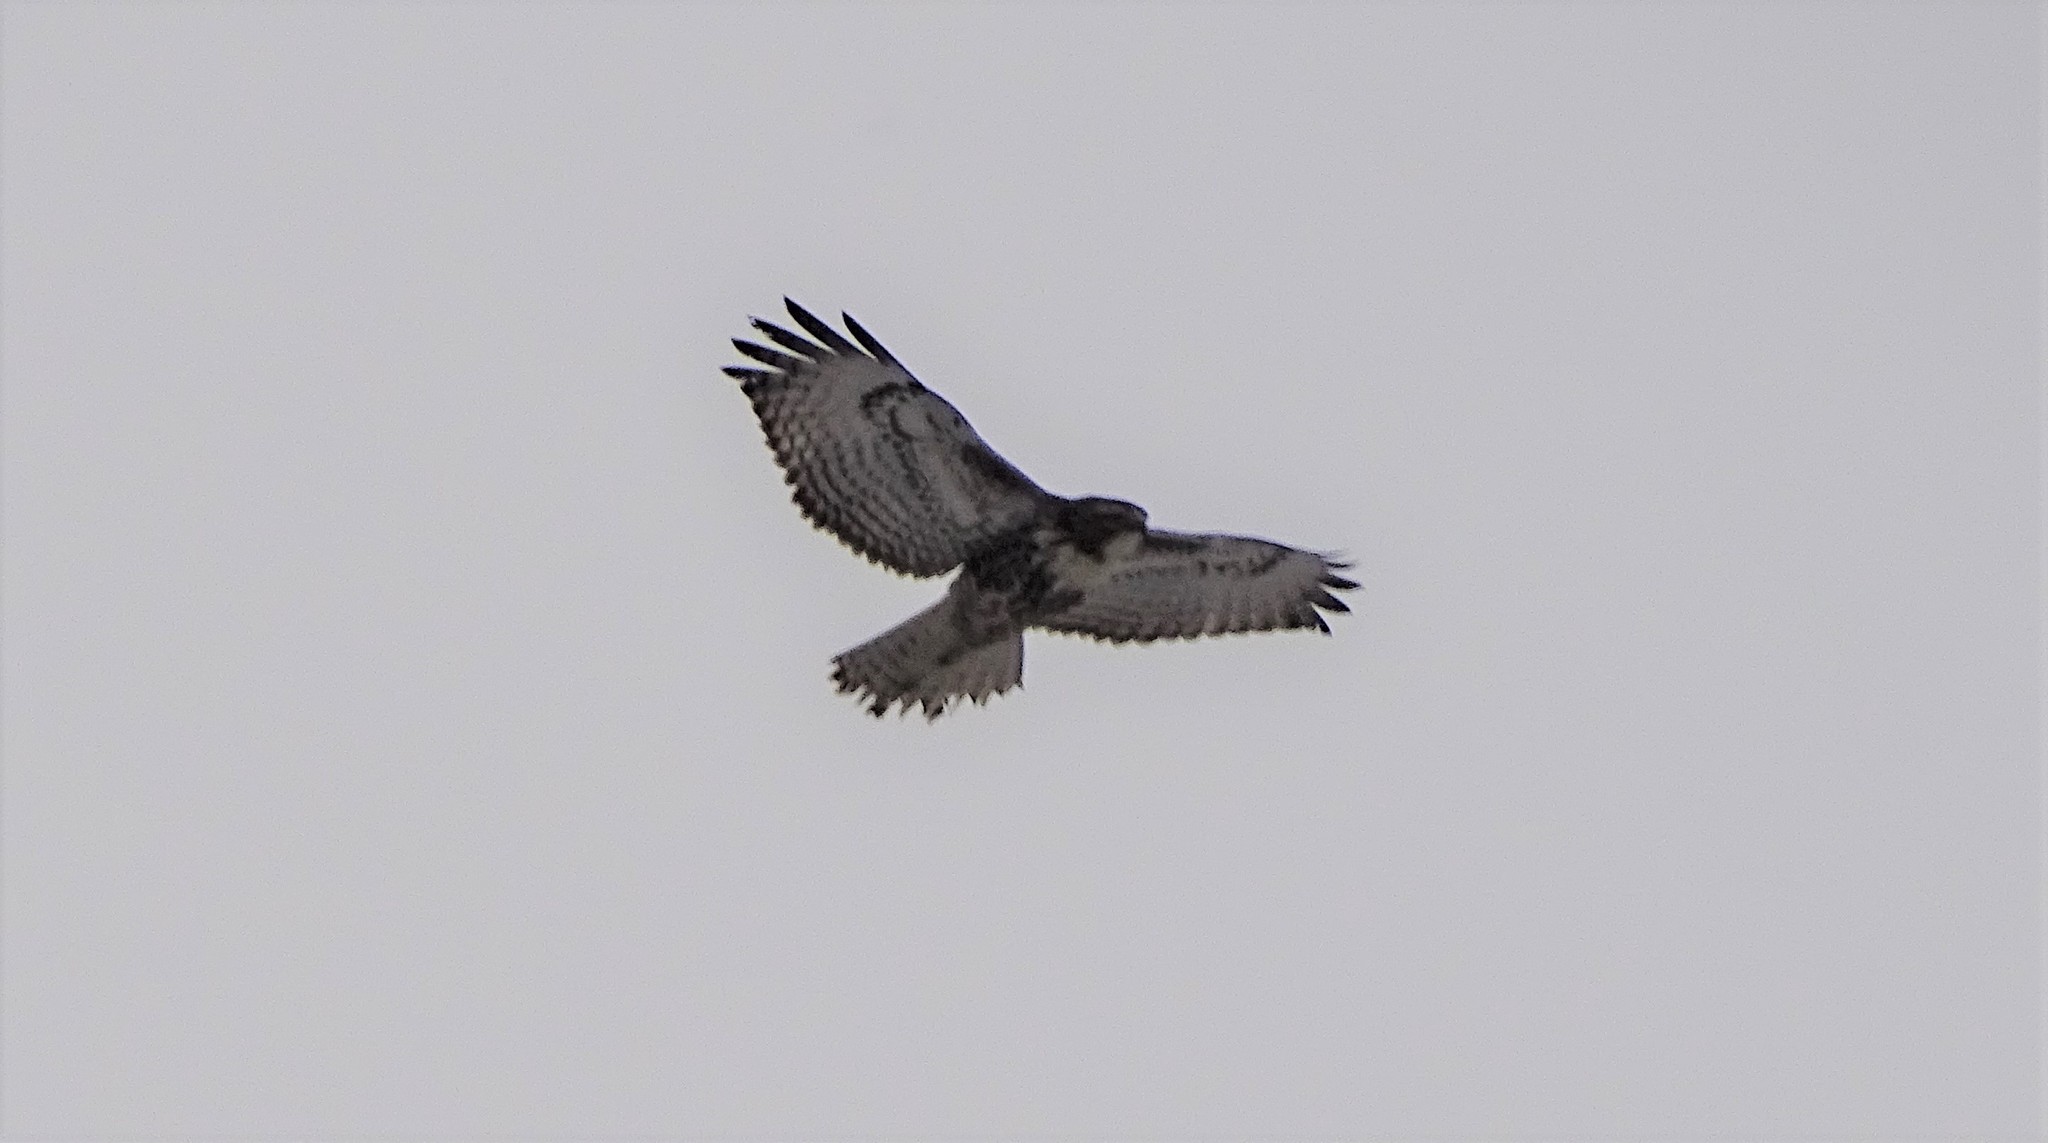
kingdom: Animalia
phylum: Chordata
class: Aves
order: Accipitriformes
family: Accipitridae
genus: Buteo
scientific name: Buteo jamaicensis
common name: Red-tailed hawk
